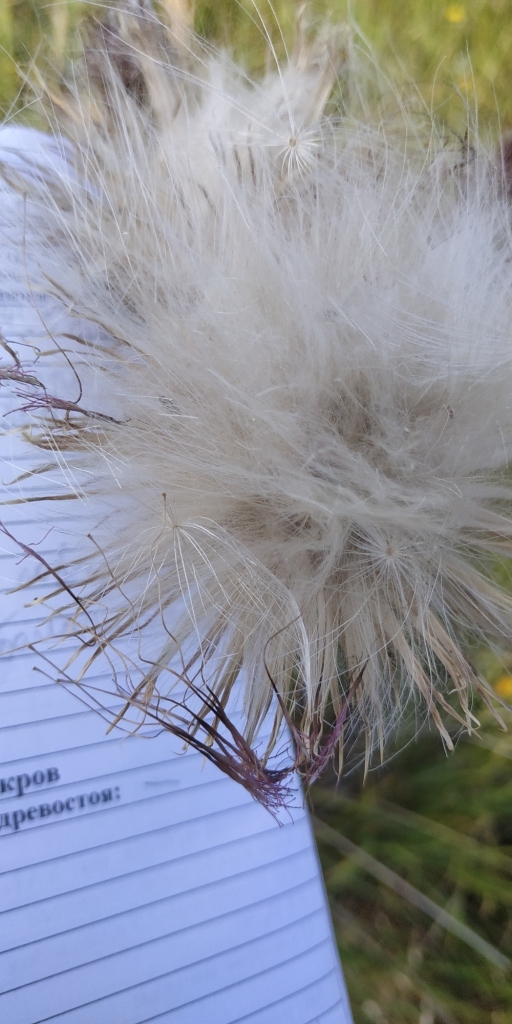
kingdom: Plantae
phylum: Tracheophyta
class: Magnoliopsida
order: Asterales
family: Asteraceae
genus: Cirsium
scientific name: Cirsium vulgare
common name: Bull thistle
